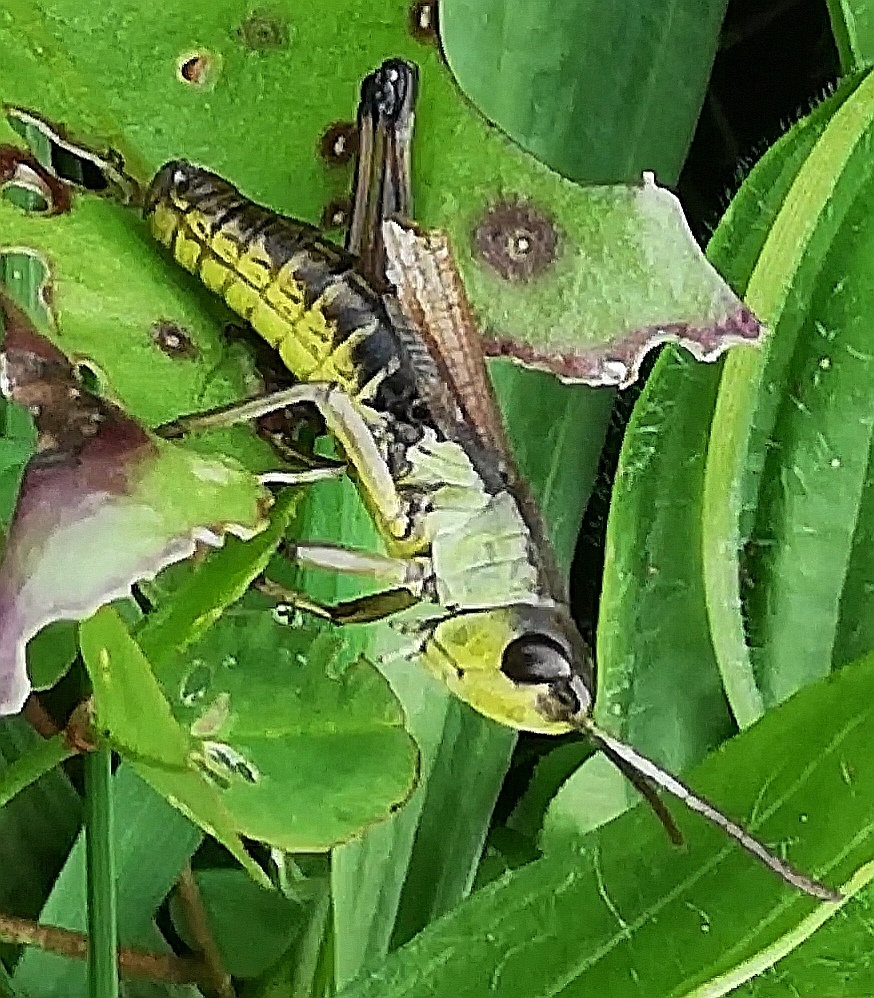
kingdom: Animalia
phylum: Arthropoda
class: Insecta
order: Orthoptera
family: Acrididae
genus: Pseudochorthippus
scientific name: Pseudochorthippus parallelus
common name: Meadow grasshopper
